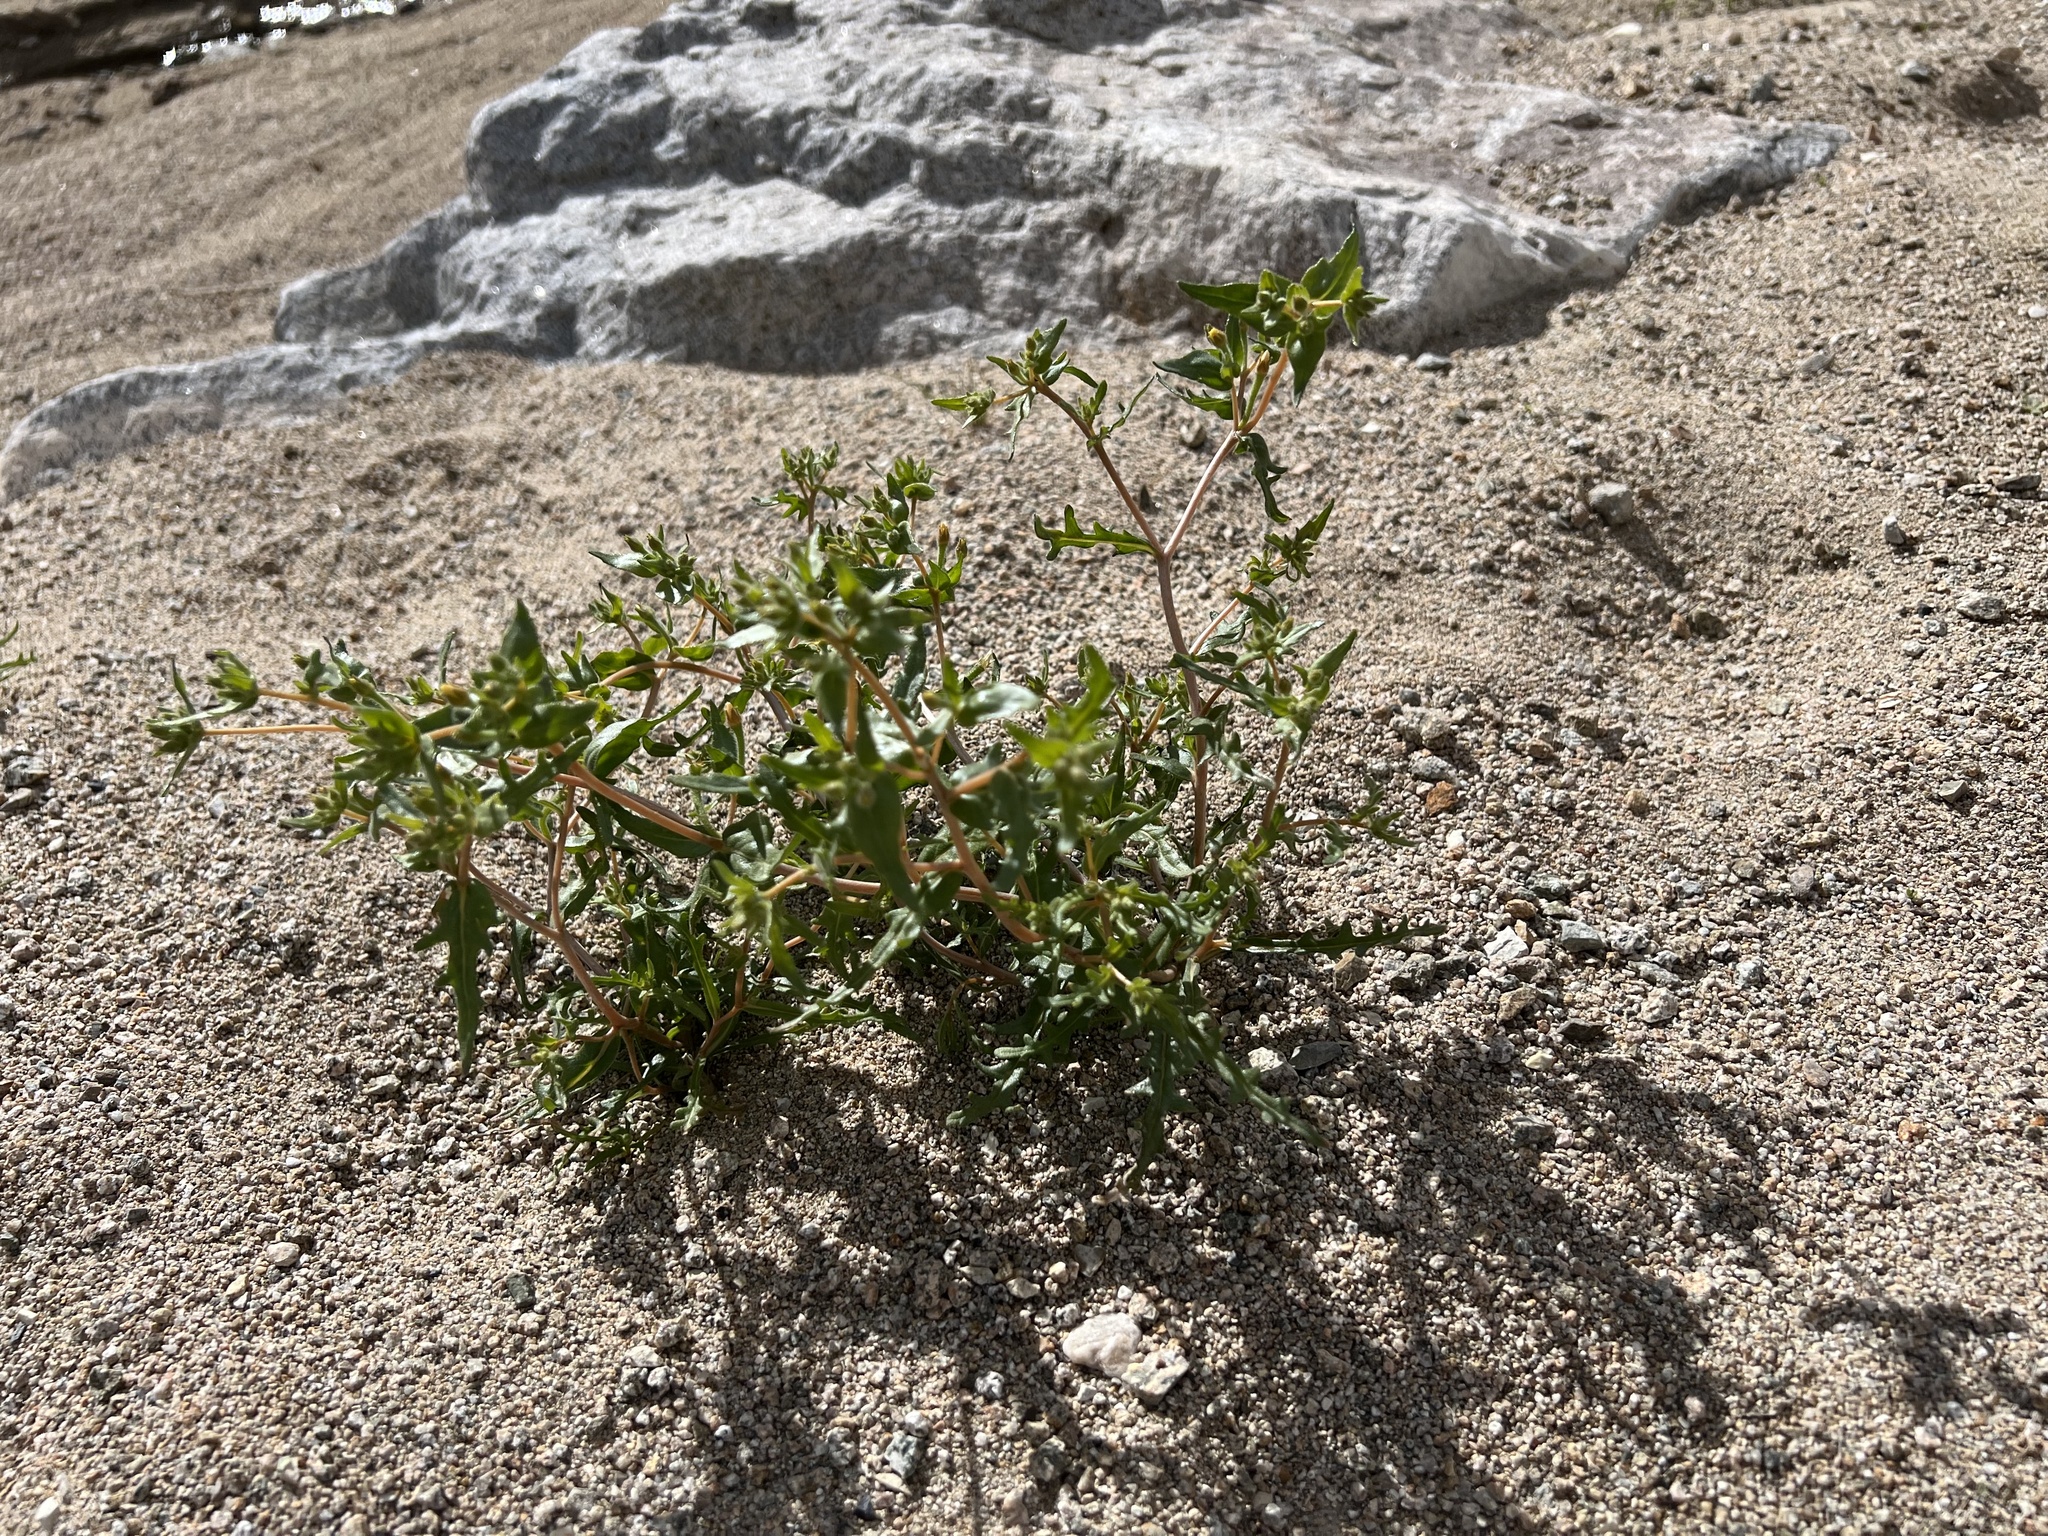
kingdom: Plantae
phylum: Tracheophyta
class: Magnoliopsida
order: Cornales
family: Loasaceae
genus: Mentzelia
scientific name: Mentzelia albicaulis
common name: White-stem blazingstar
